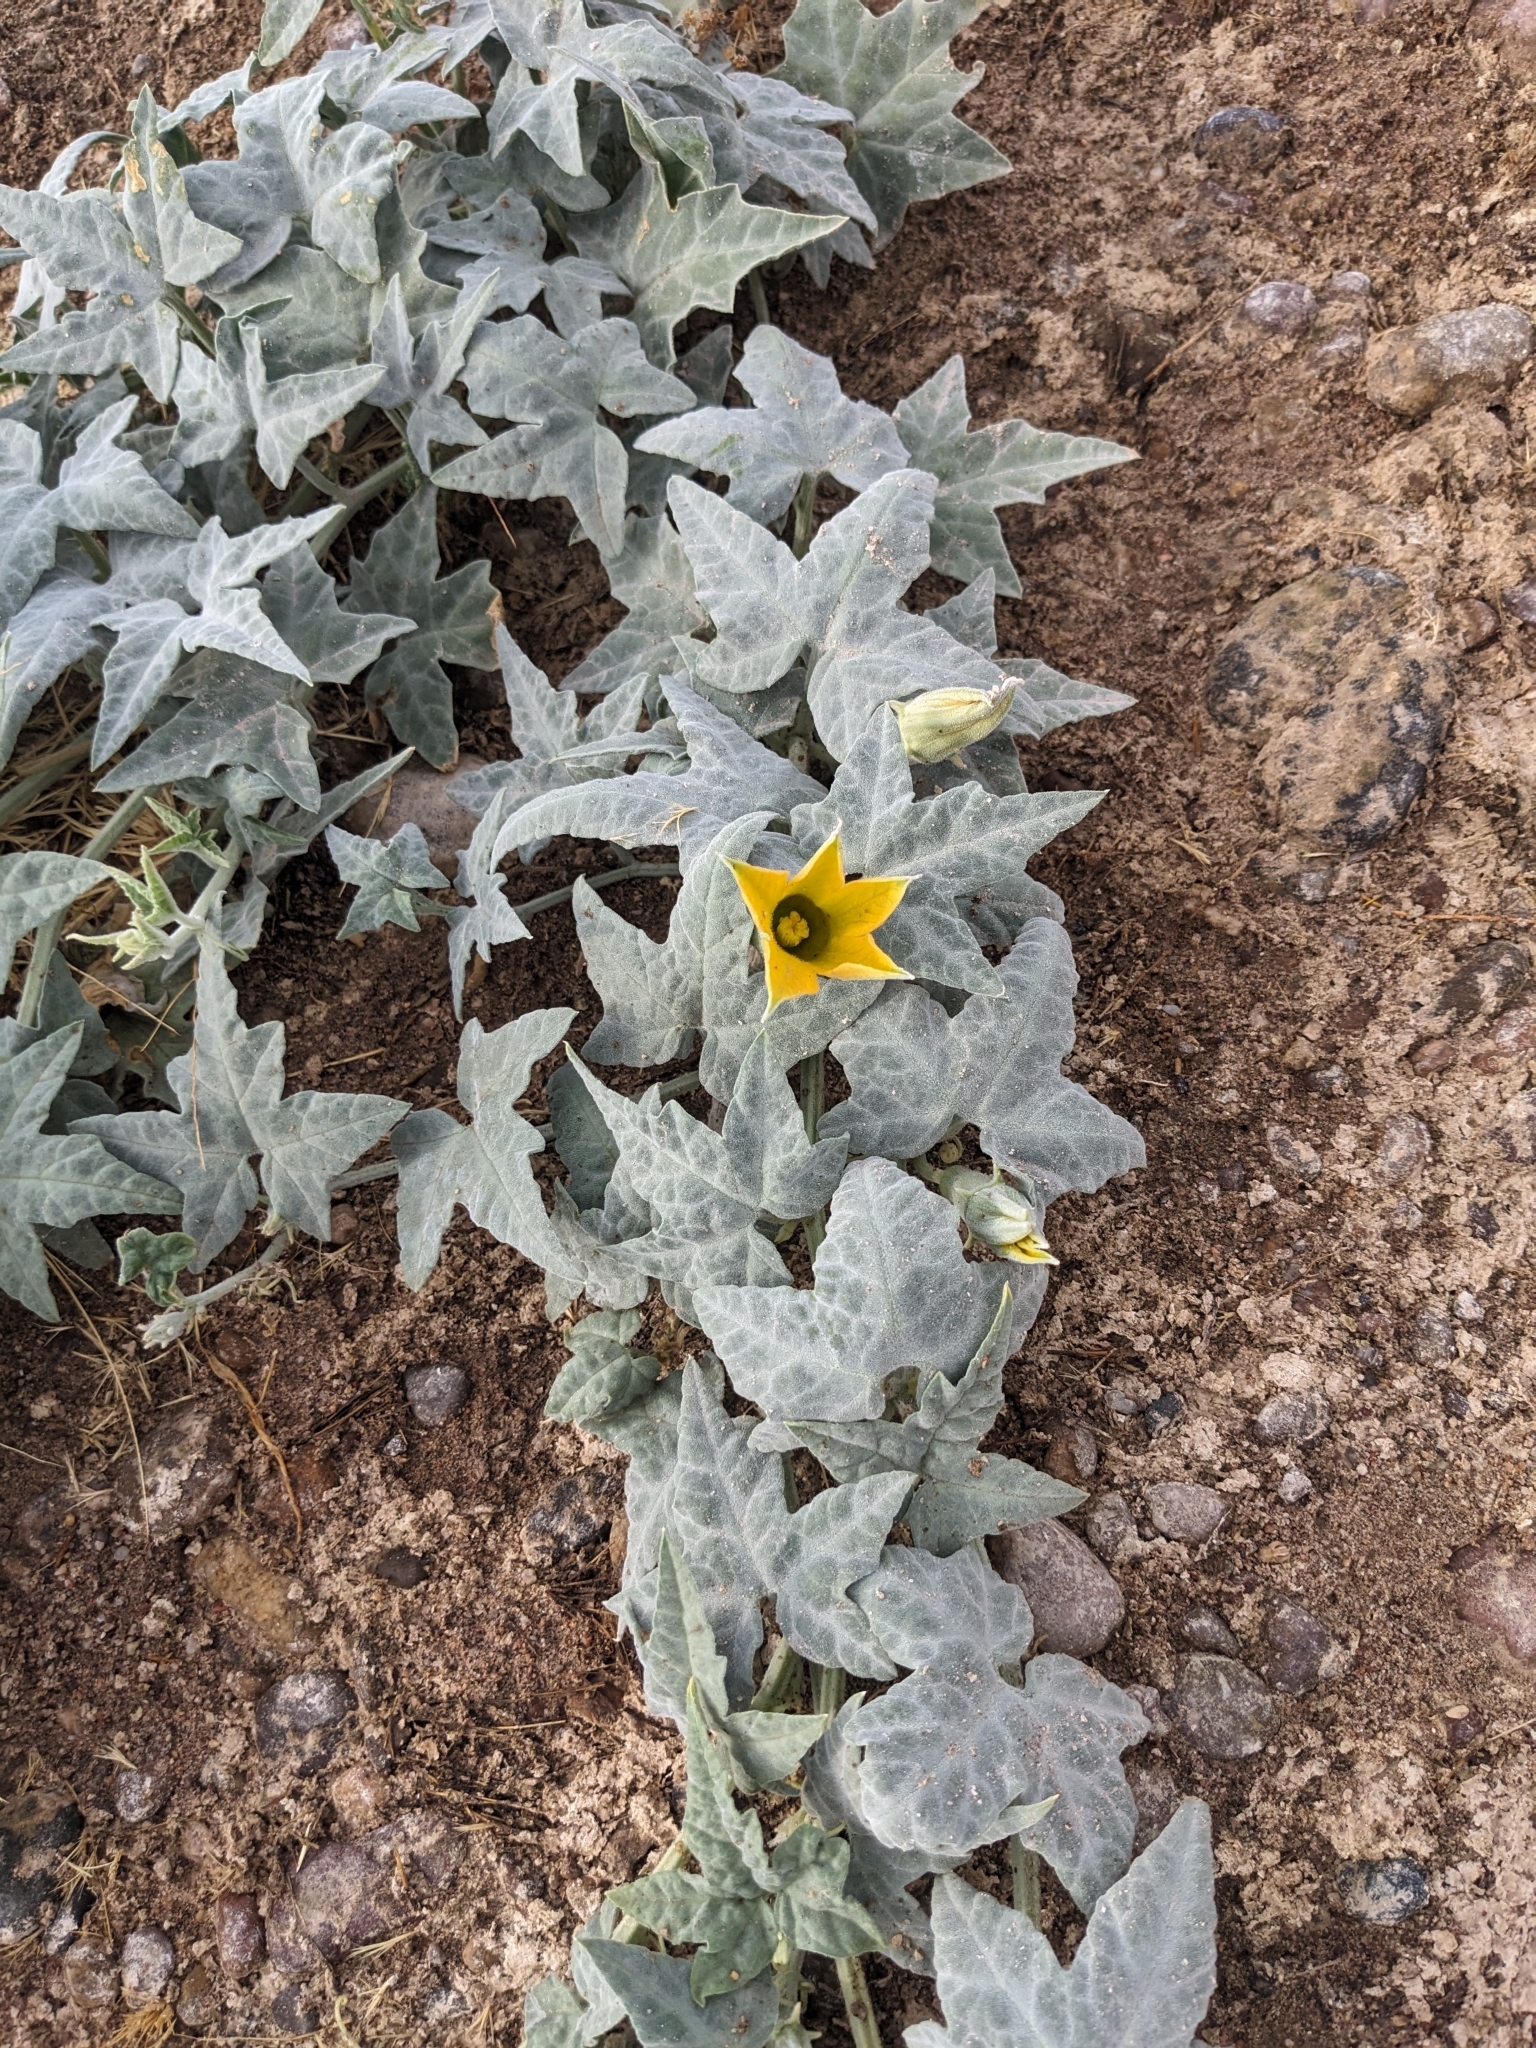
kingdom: Plantae
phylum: Tracheophyta
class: Magnoliopsida
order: Cucurbitales
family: Cucurbitaceae
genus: Cucurbita
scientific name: Cucurbita palmata
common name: Coyote-melon
